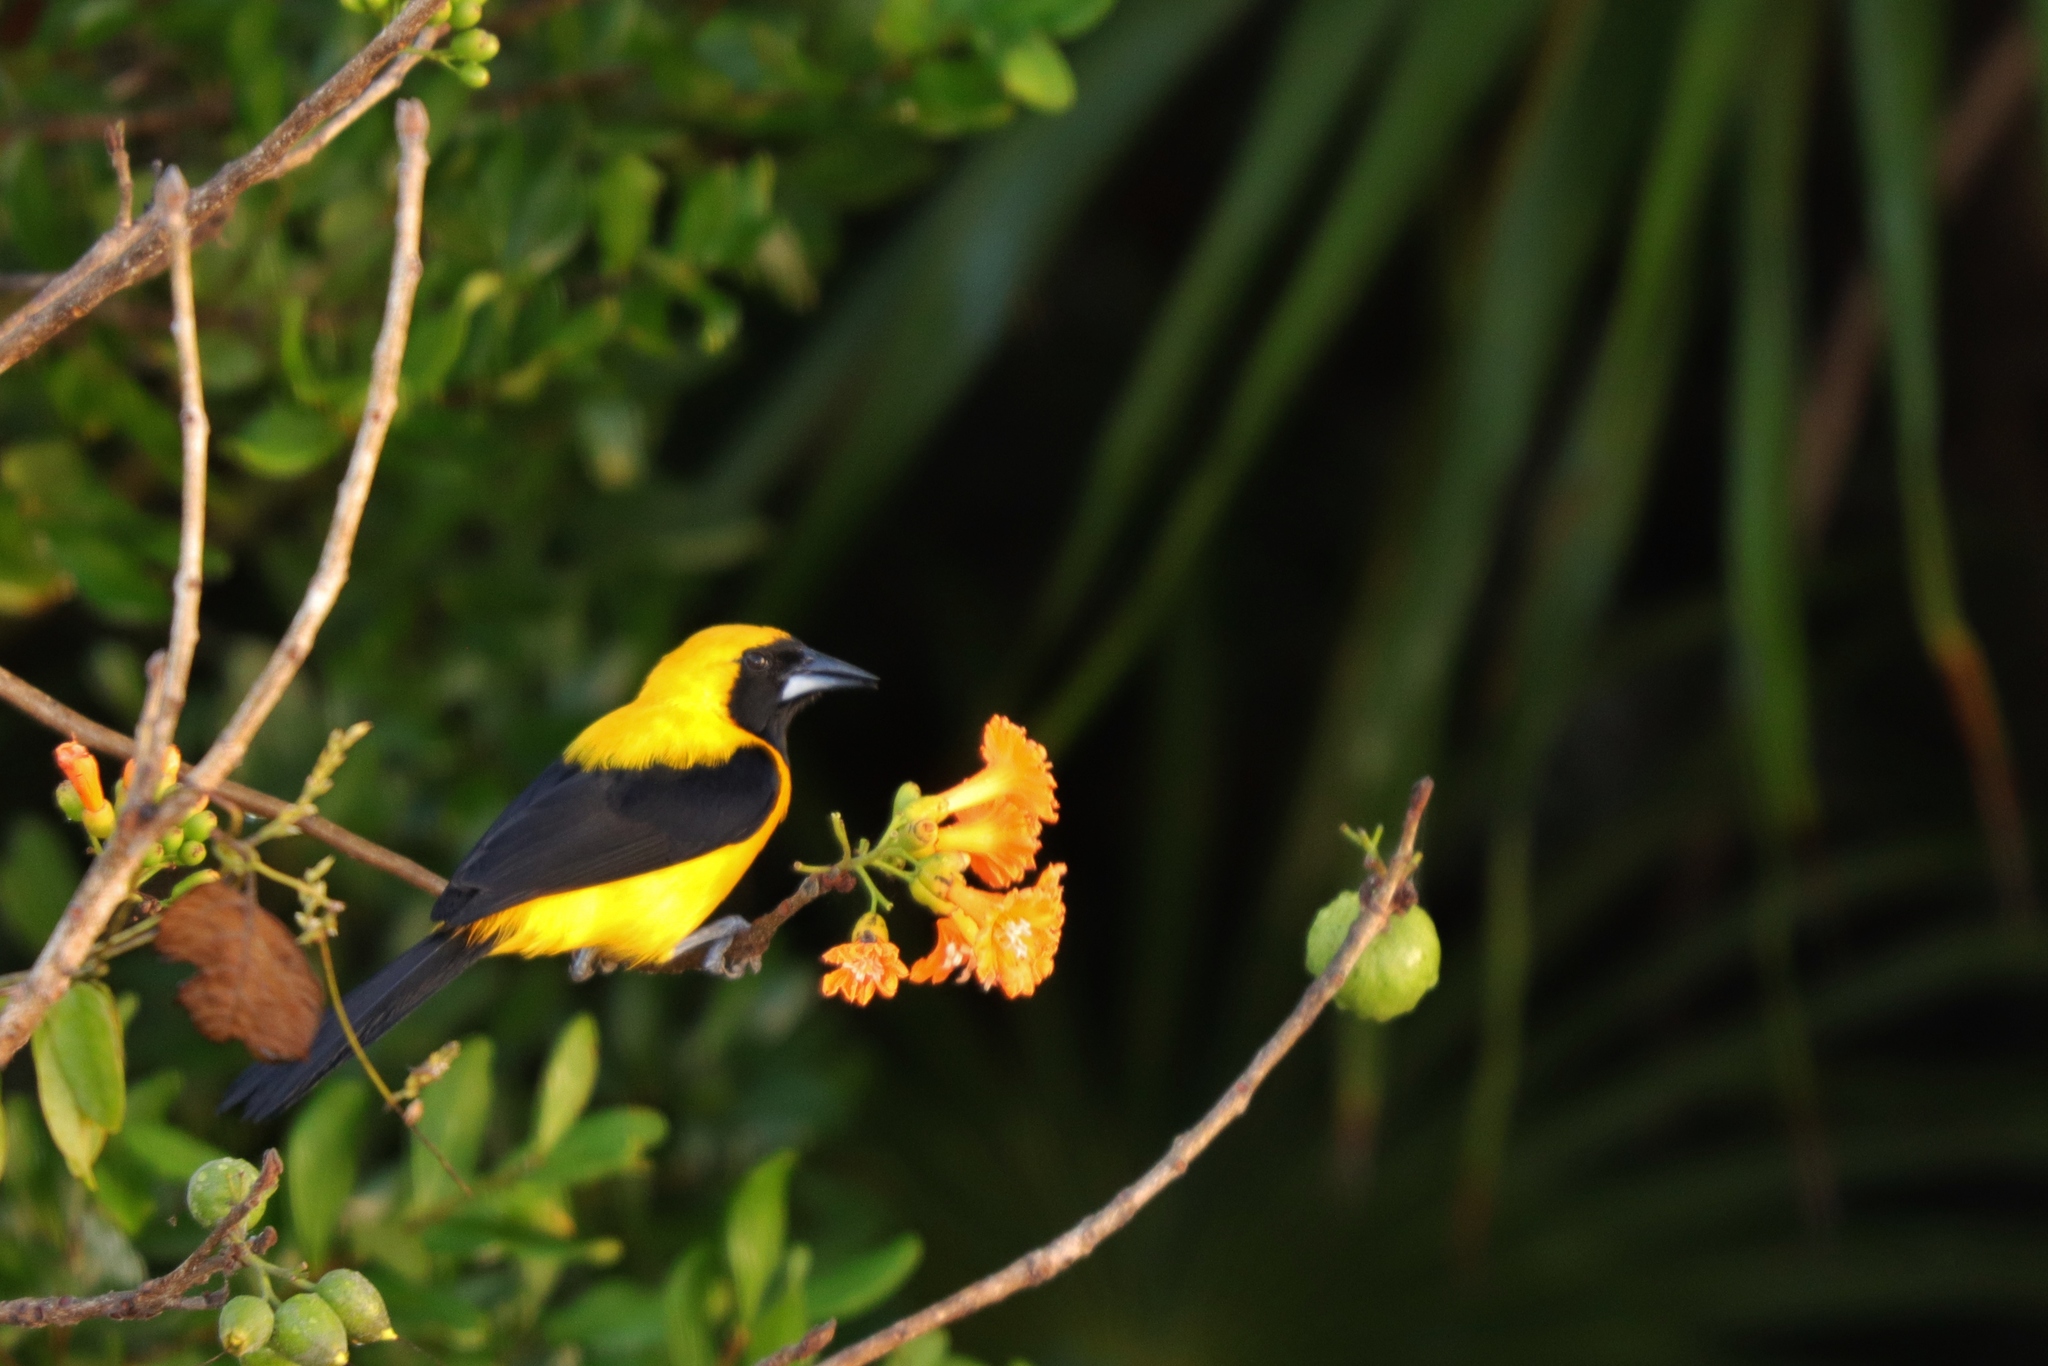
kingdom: Animalia
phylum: Chordata
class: Aves
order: Passeriformes
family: Icteridae
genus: Icterus
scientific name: Icterus chrysater
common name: Yellow-backed oriole
